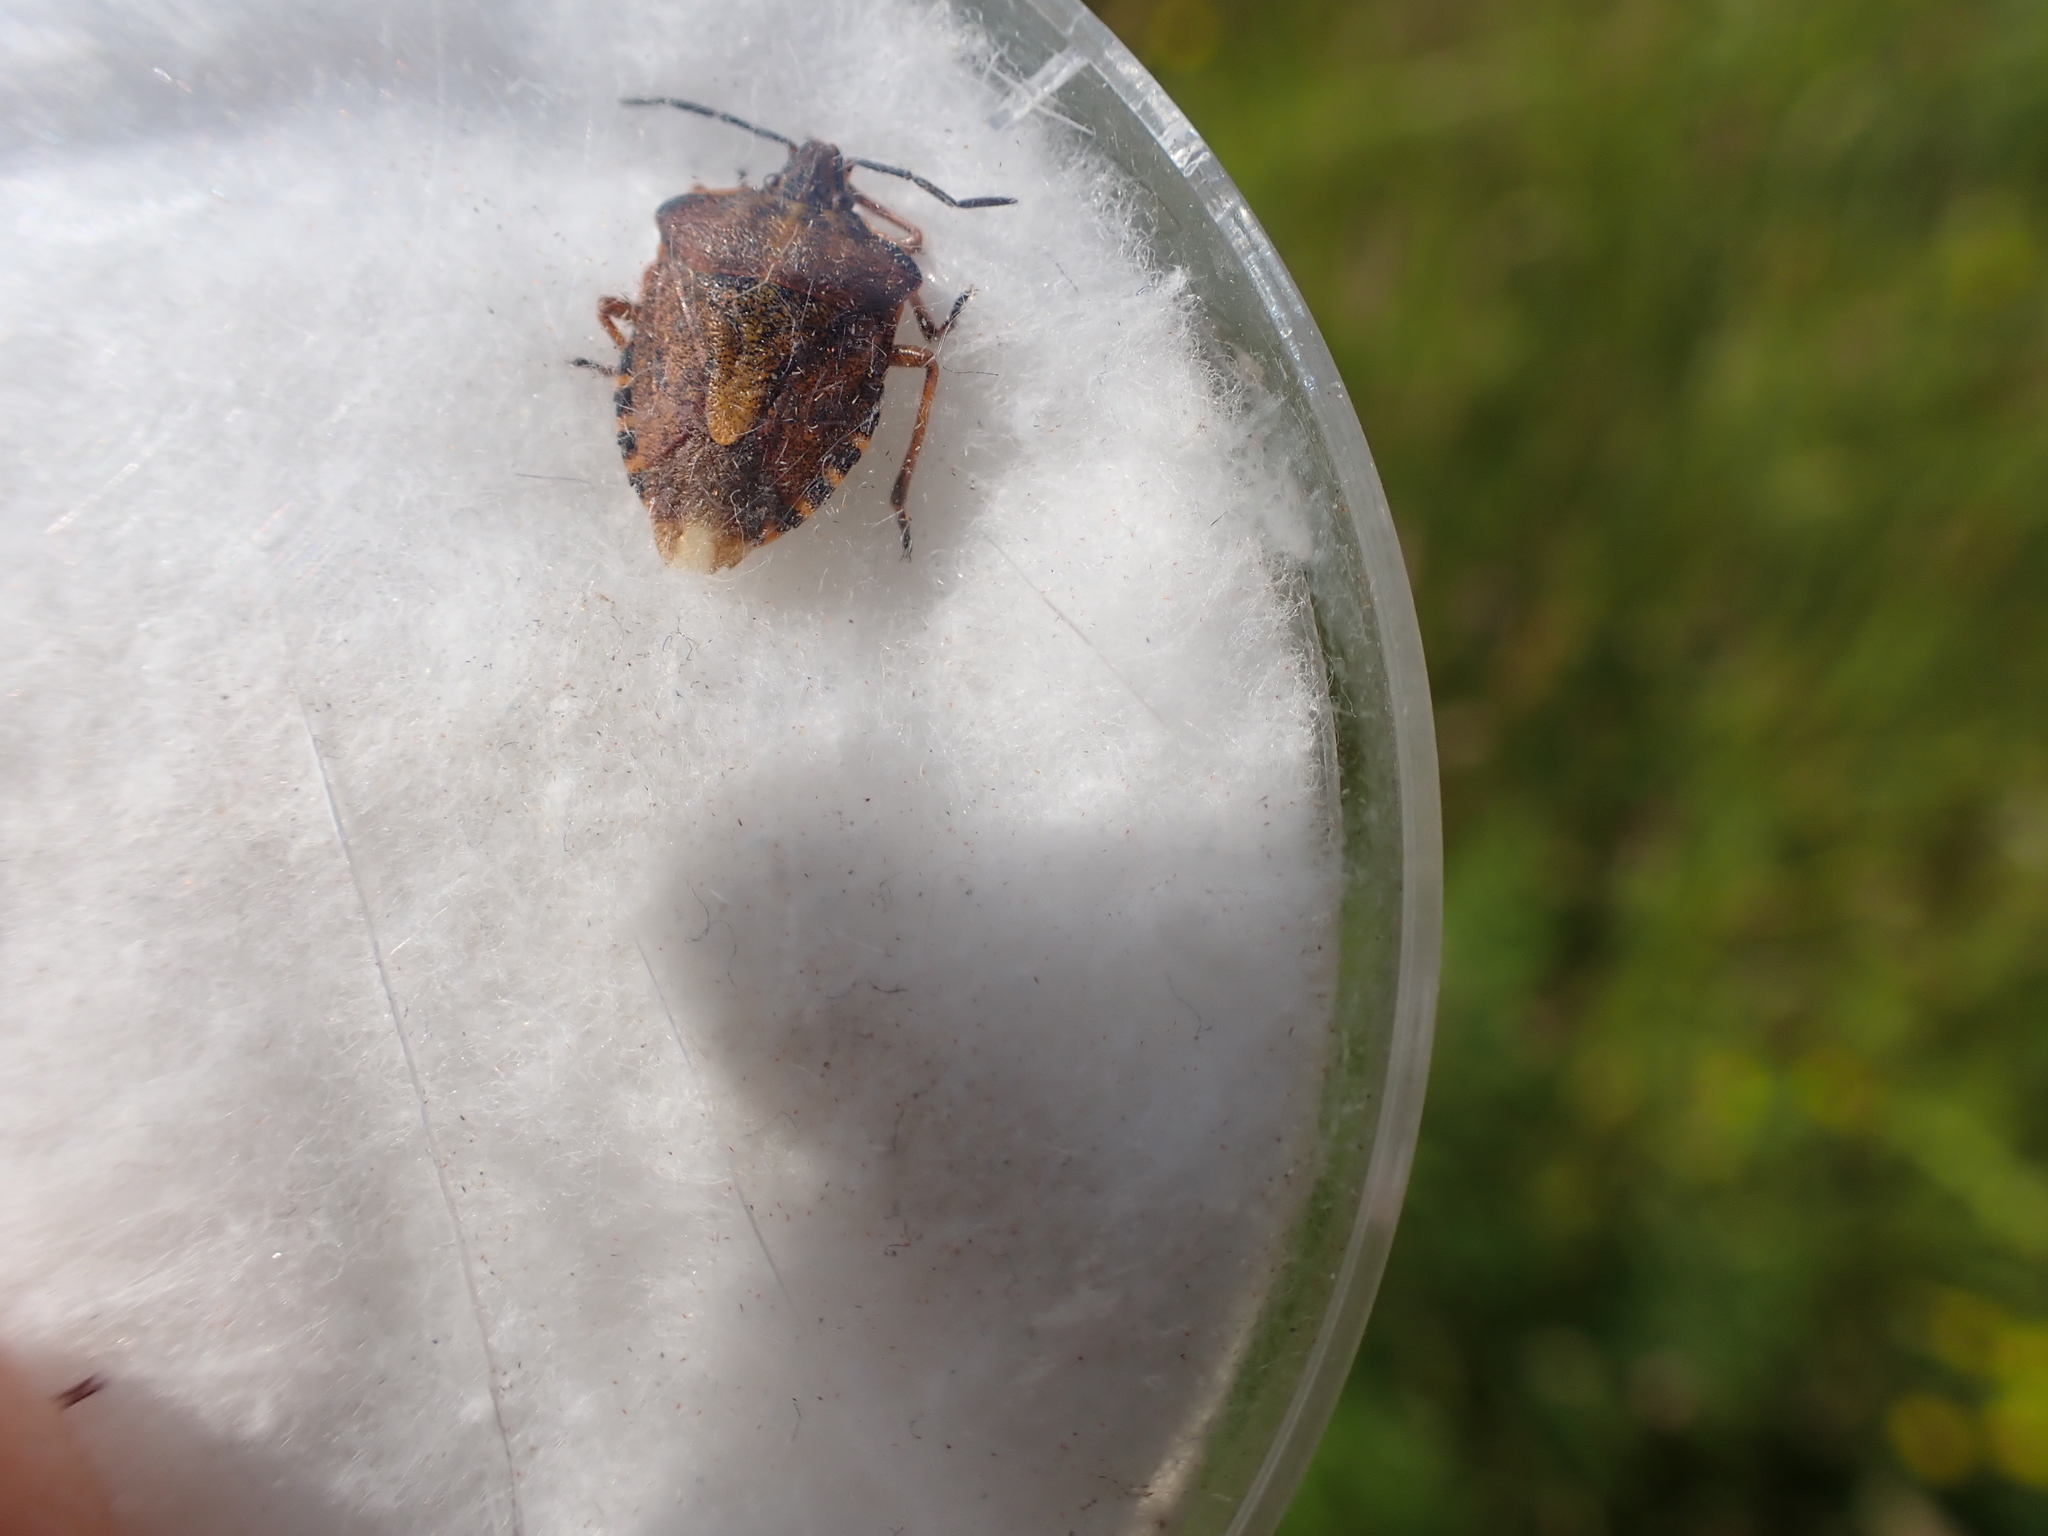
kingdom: Animalia
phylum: Arthropoda
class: Insecta
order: Hemiptera
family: Pentatomidae
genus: Carpocoris
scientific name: Carpocoris purpureipennis
